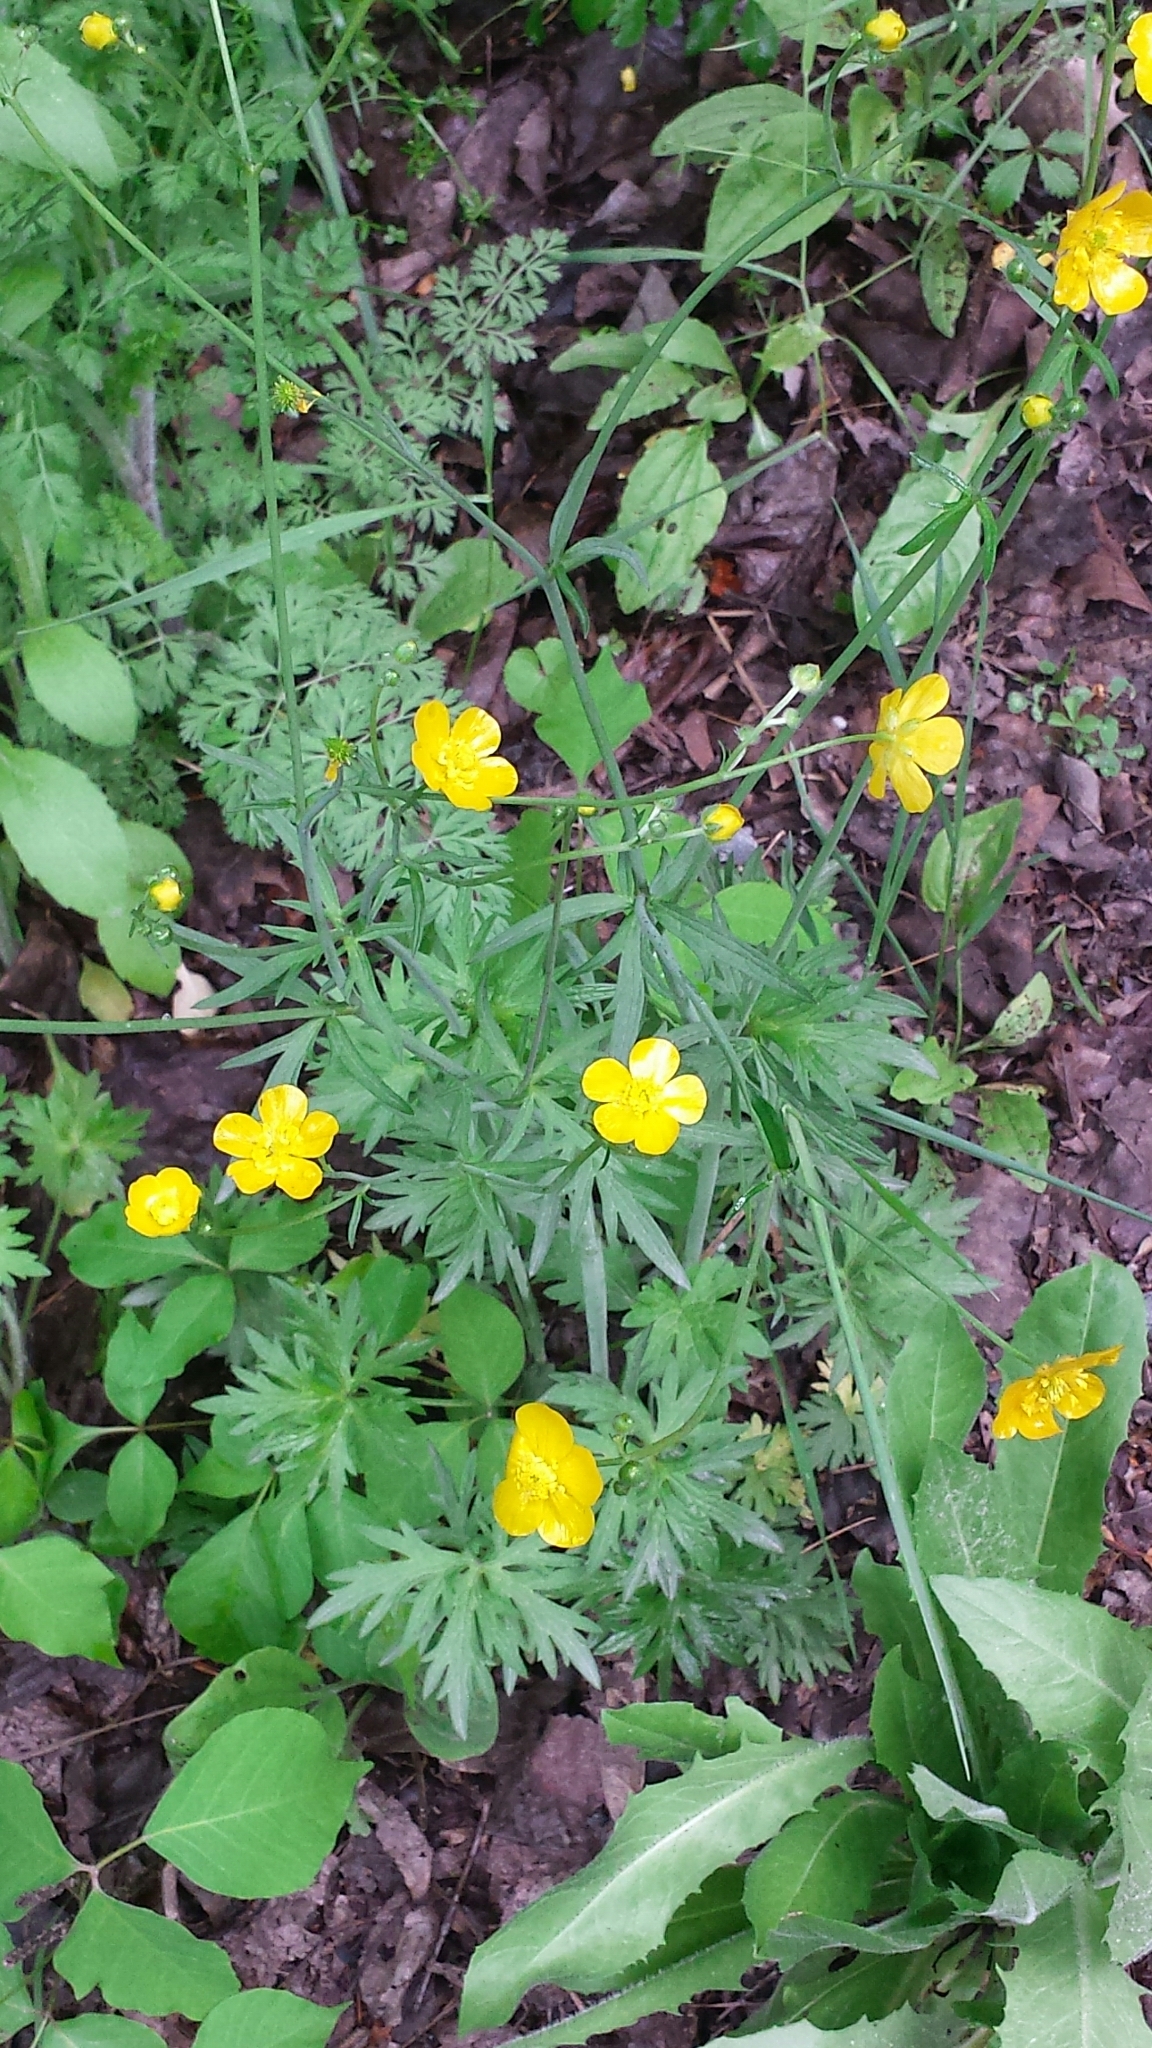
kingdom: Plantae
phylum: Tracheophyta
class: Magnoliopsida
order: Ranunculales
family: Ranunculaceae
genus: Ranunculus
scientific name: Ranunculus acris
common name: Meadow buttercup
